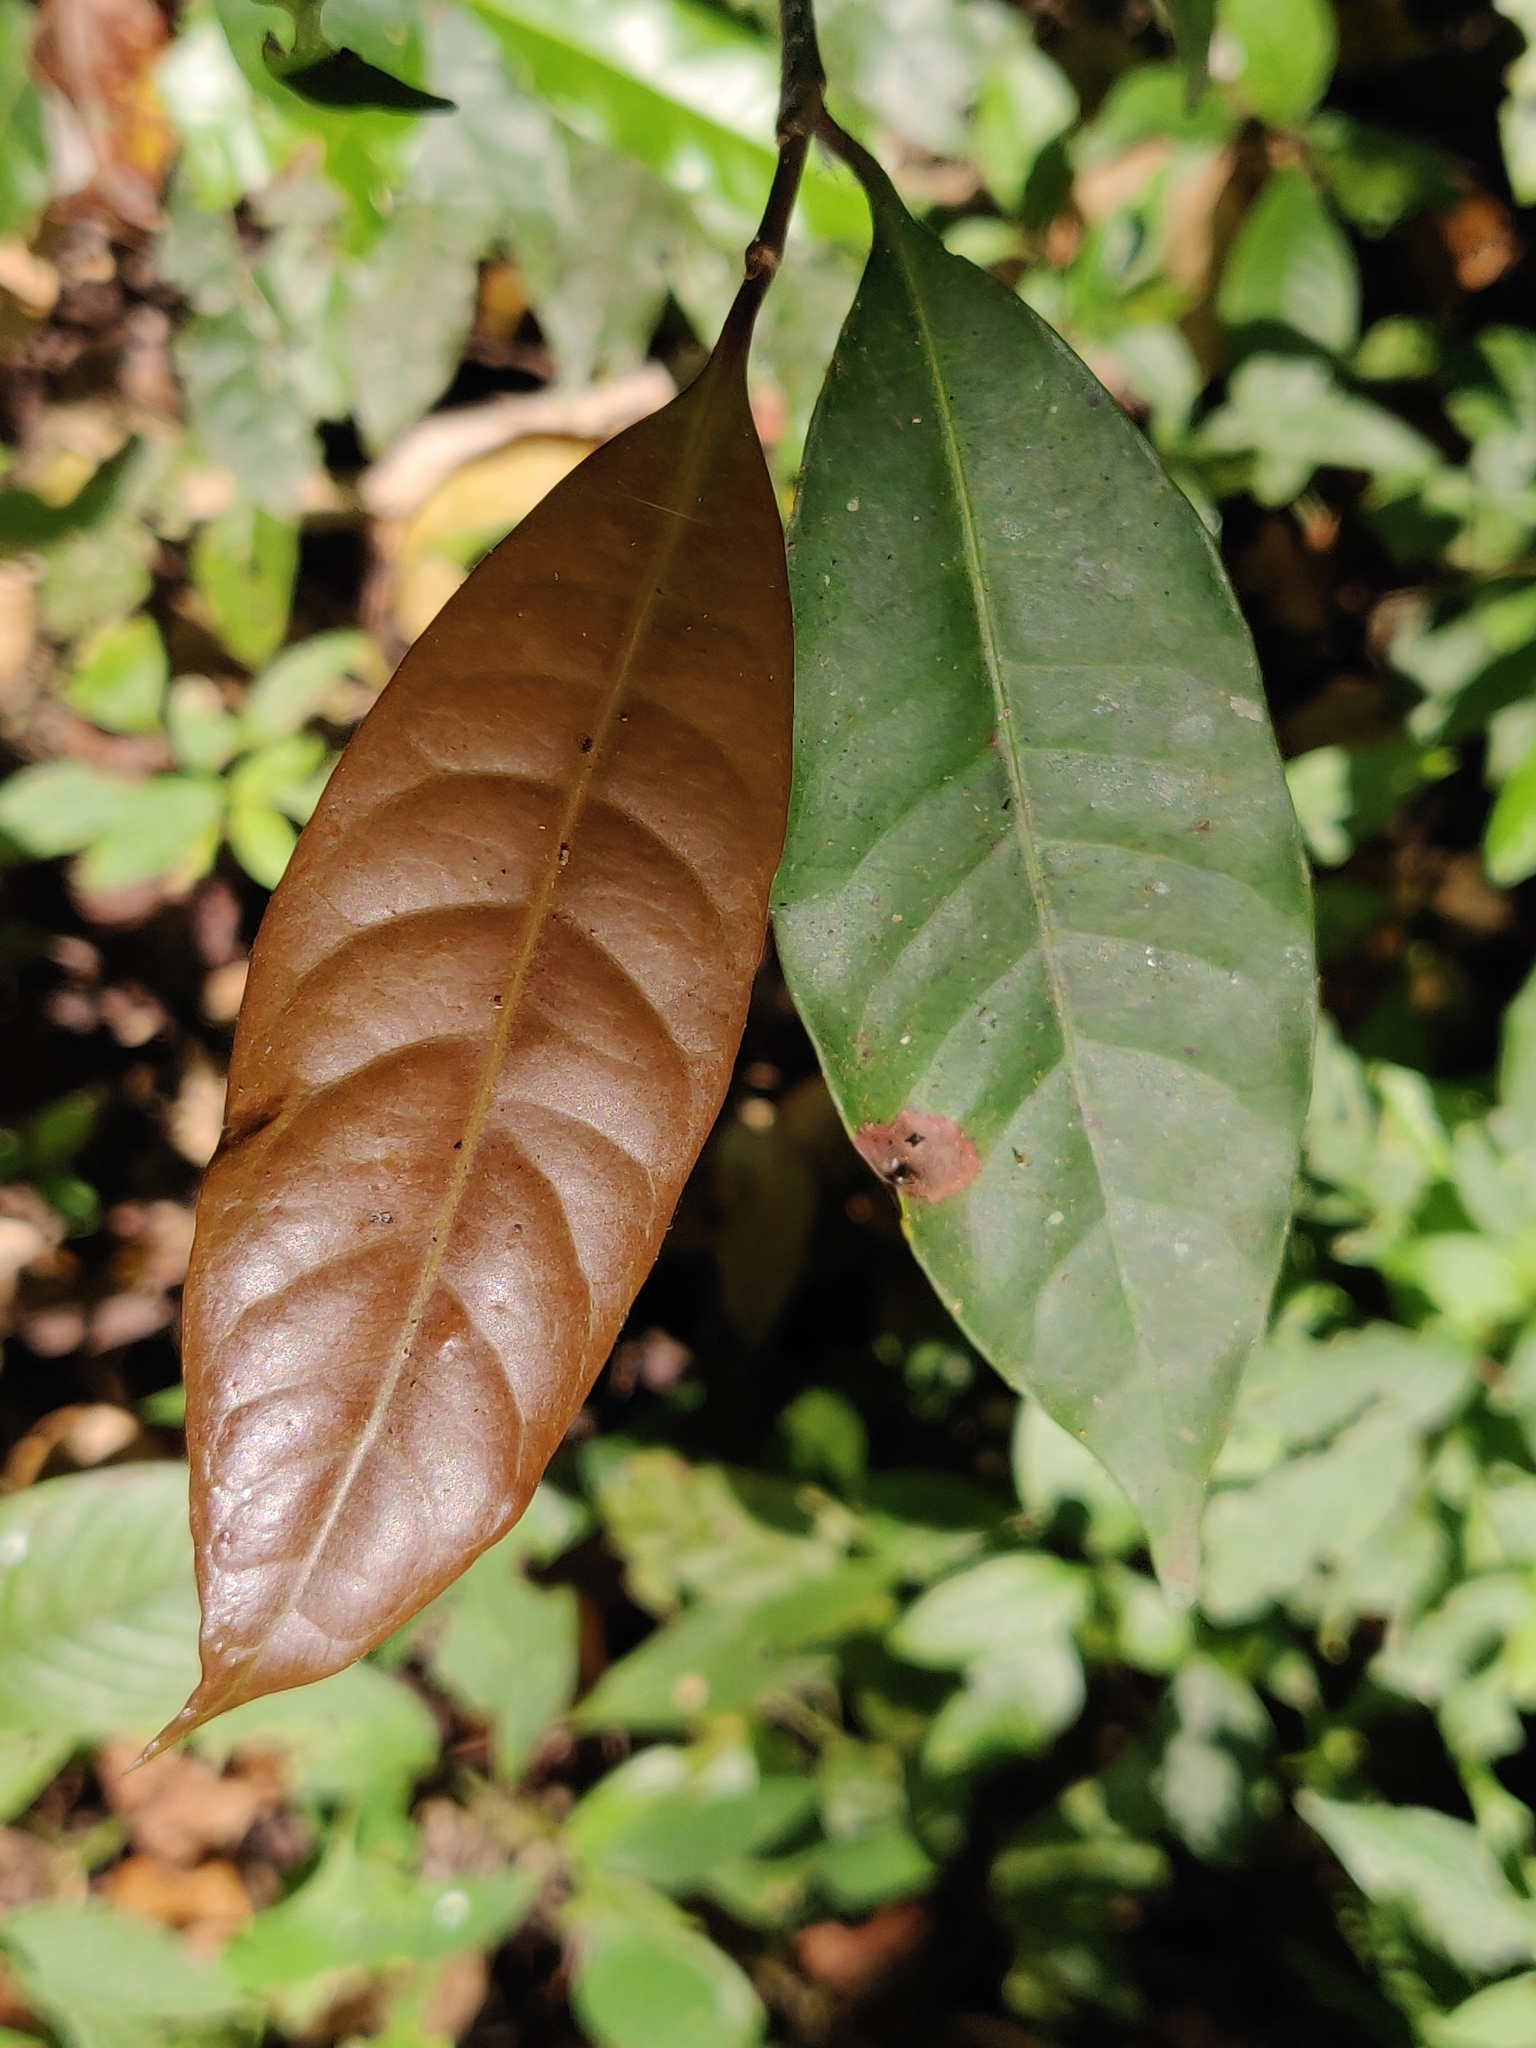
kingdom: Plantae
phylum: Tracheophyta
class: Magnoliopsida
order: Ericales
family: Sapotaceae
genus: Palaquium
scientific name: Palaquium ellipticum
